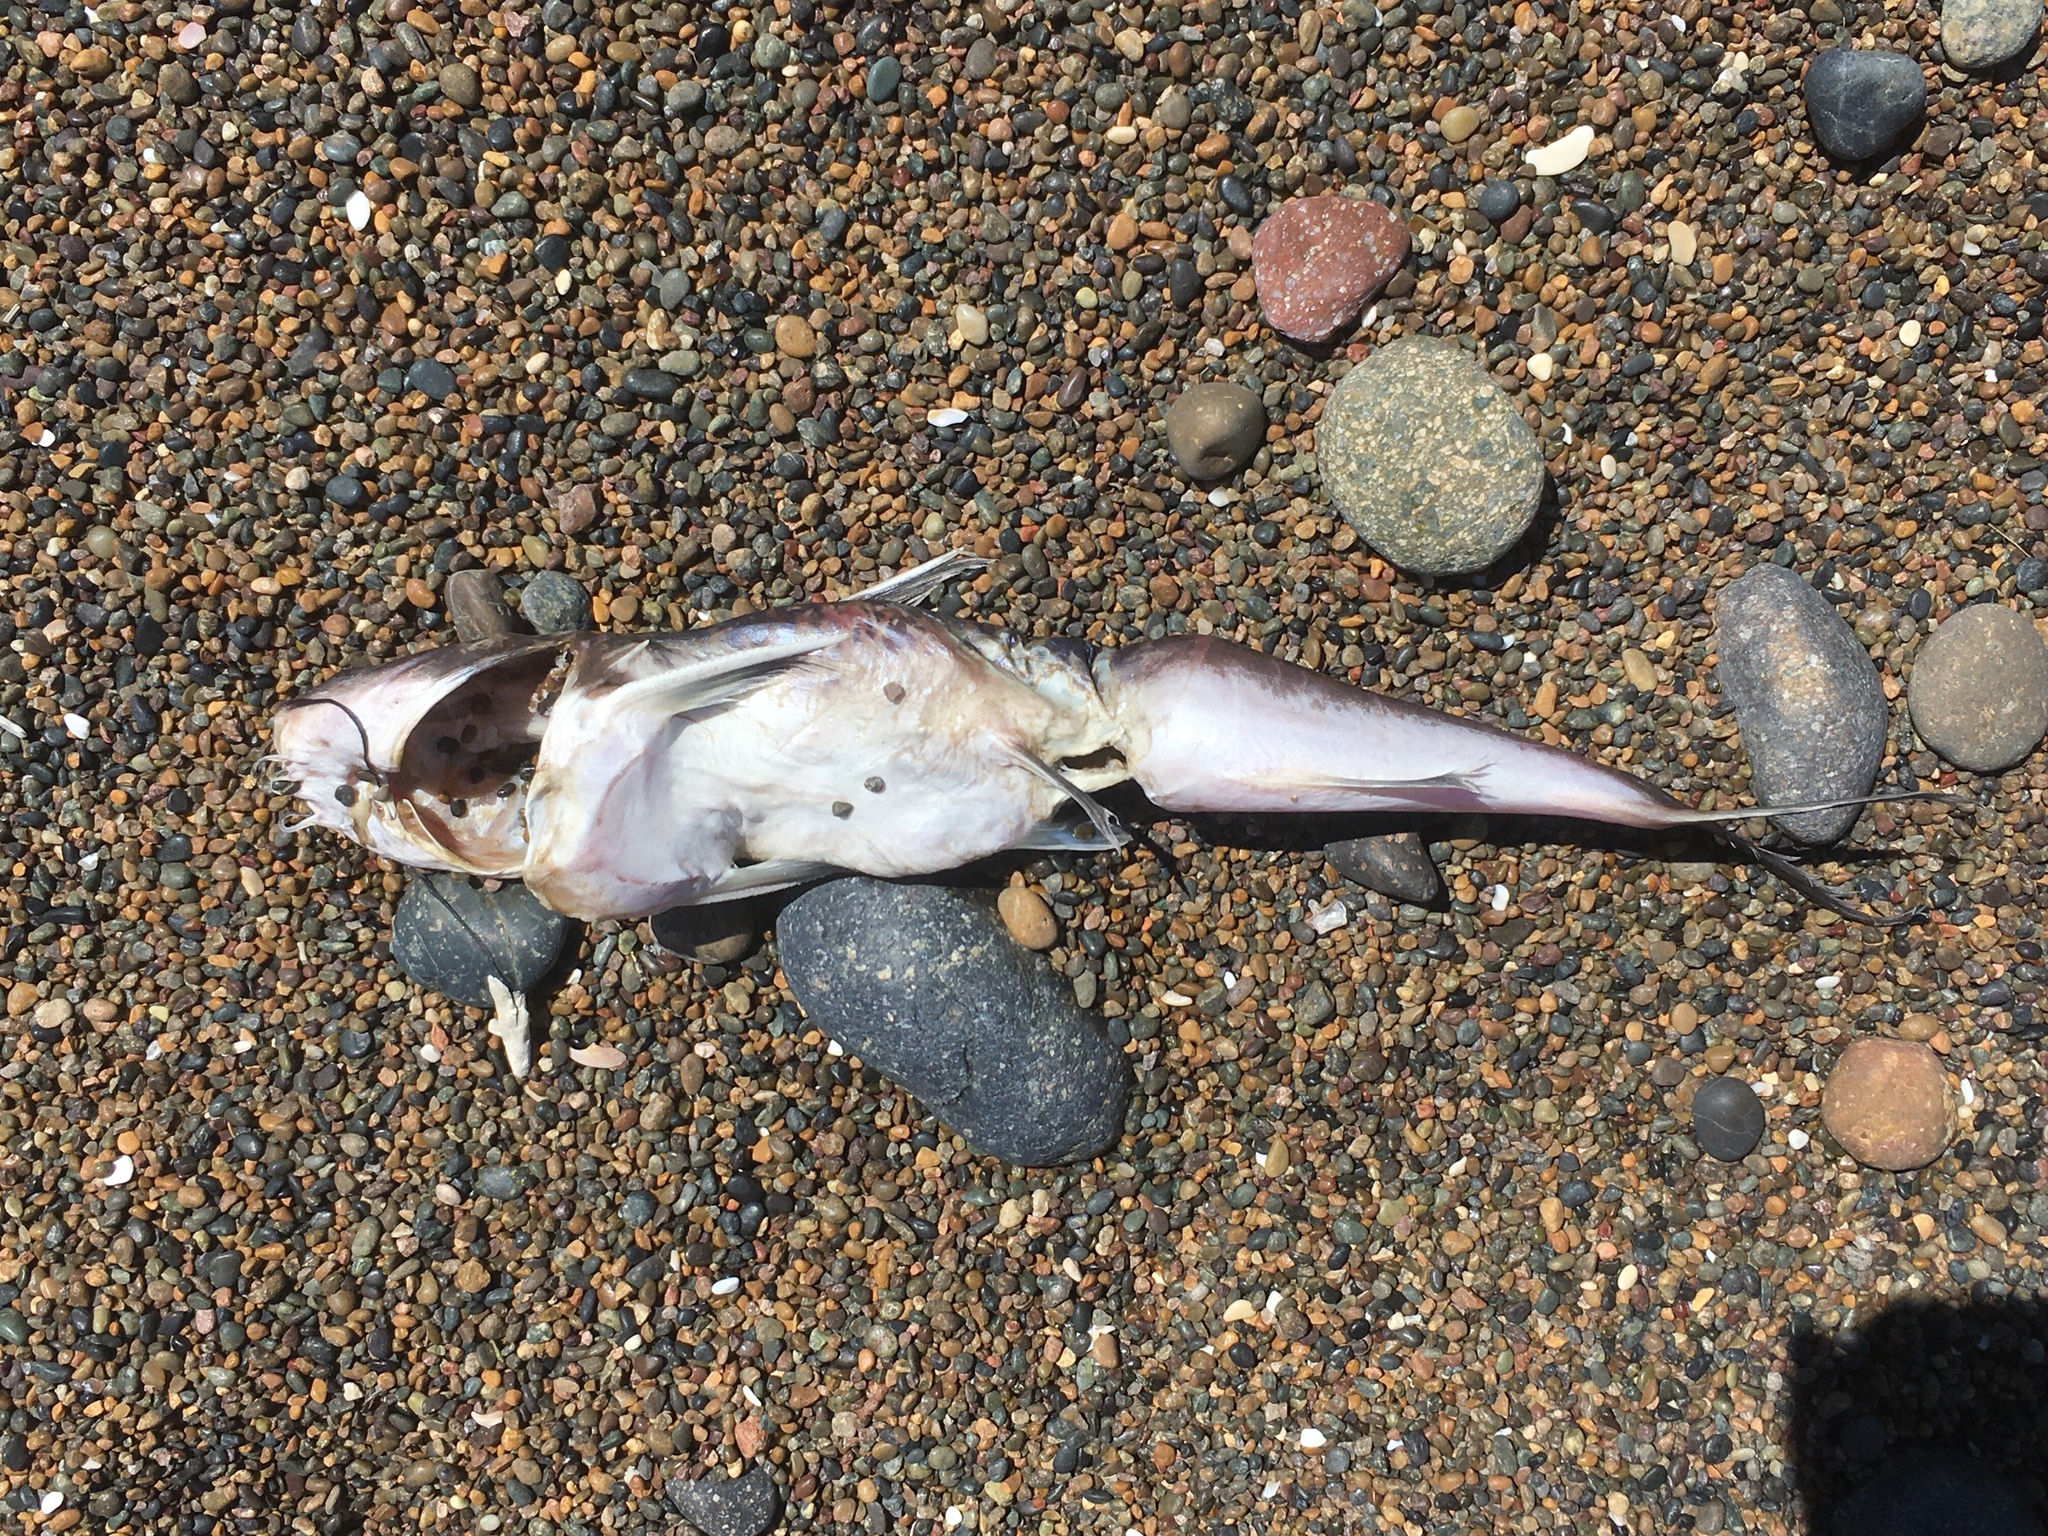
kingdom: Animalia
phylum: Chordata
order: Siluriformes
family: Ariidae
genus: Genidens
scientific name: Genidens barbus
